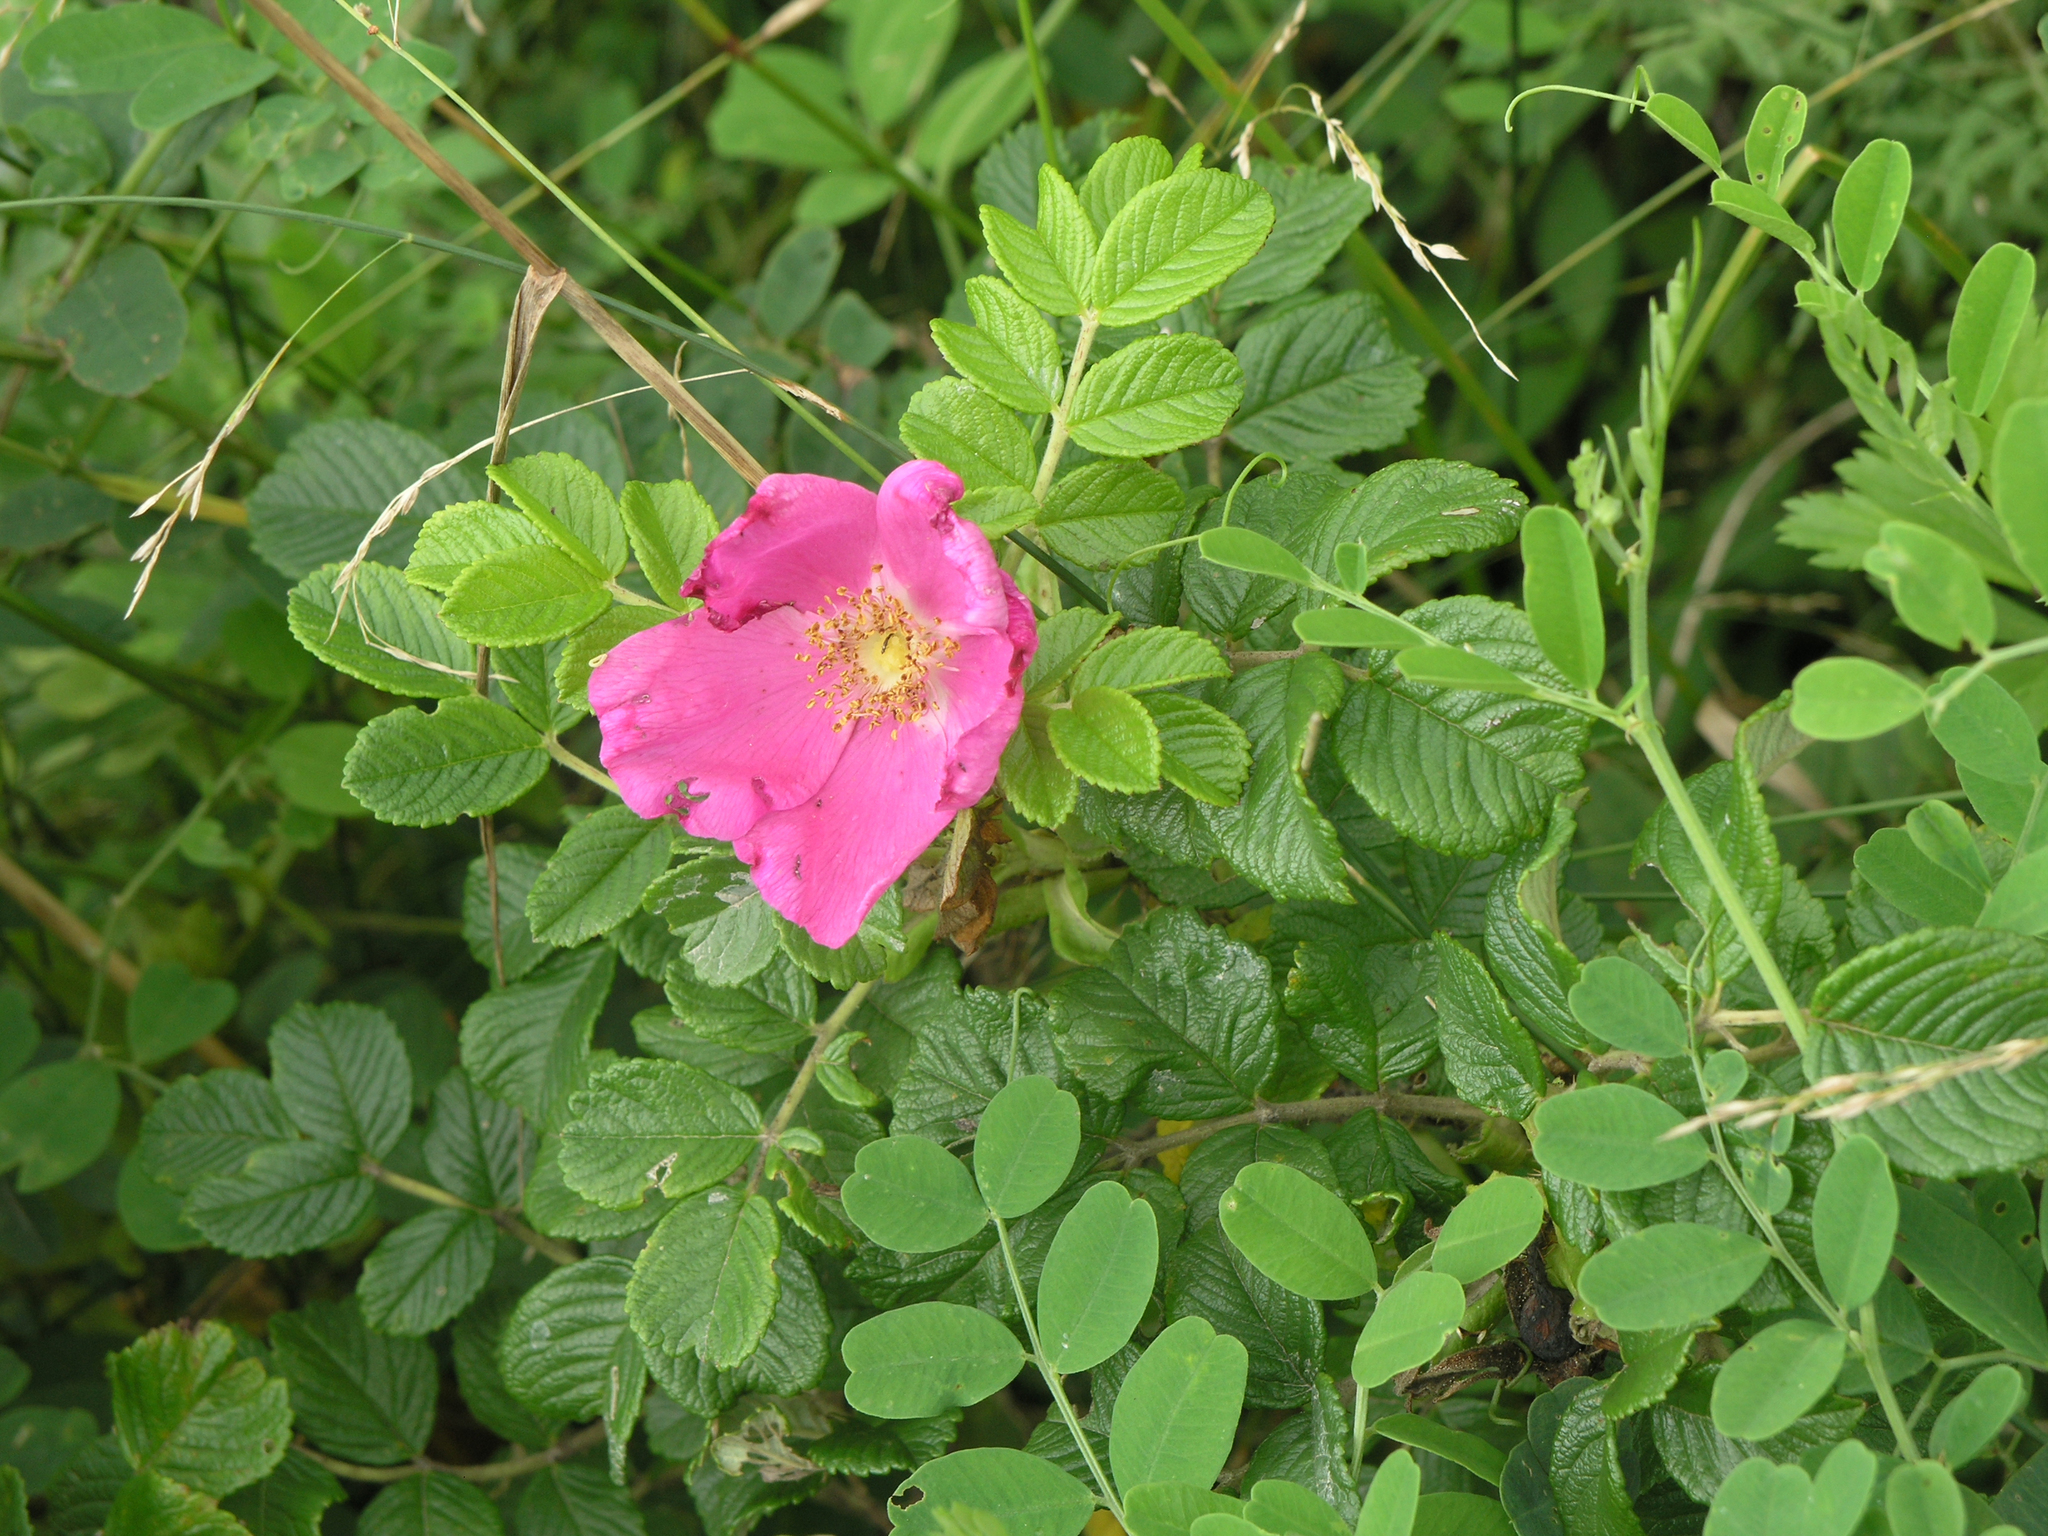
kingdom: Plantae
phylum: Tracheophyta
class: Magnoliopsida
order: Rosales
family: Rosaceae
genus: Rosa
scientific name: Rosa rugosa
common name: Japanese rose
